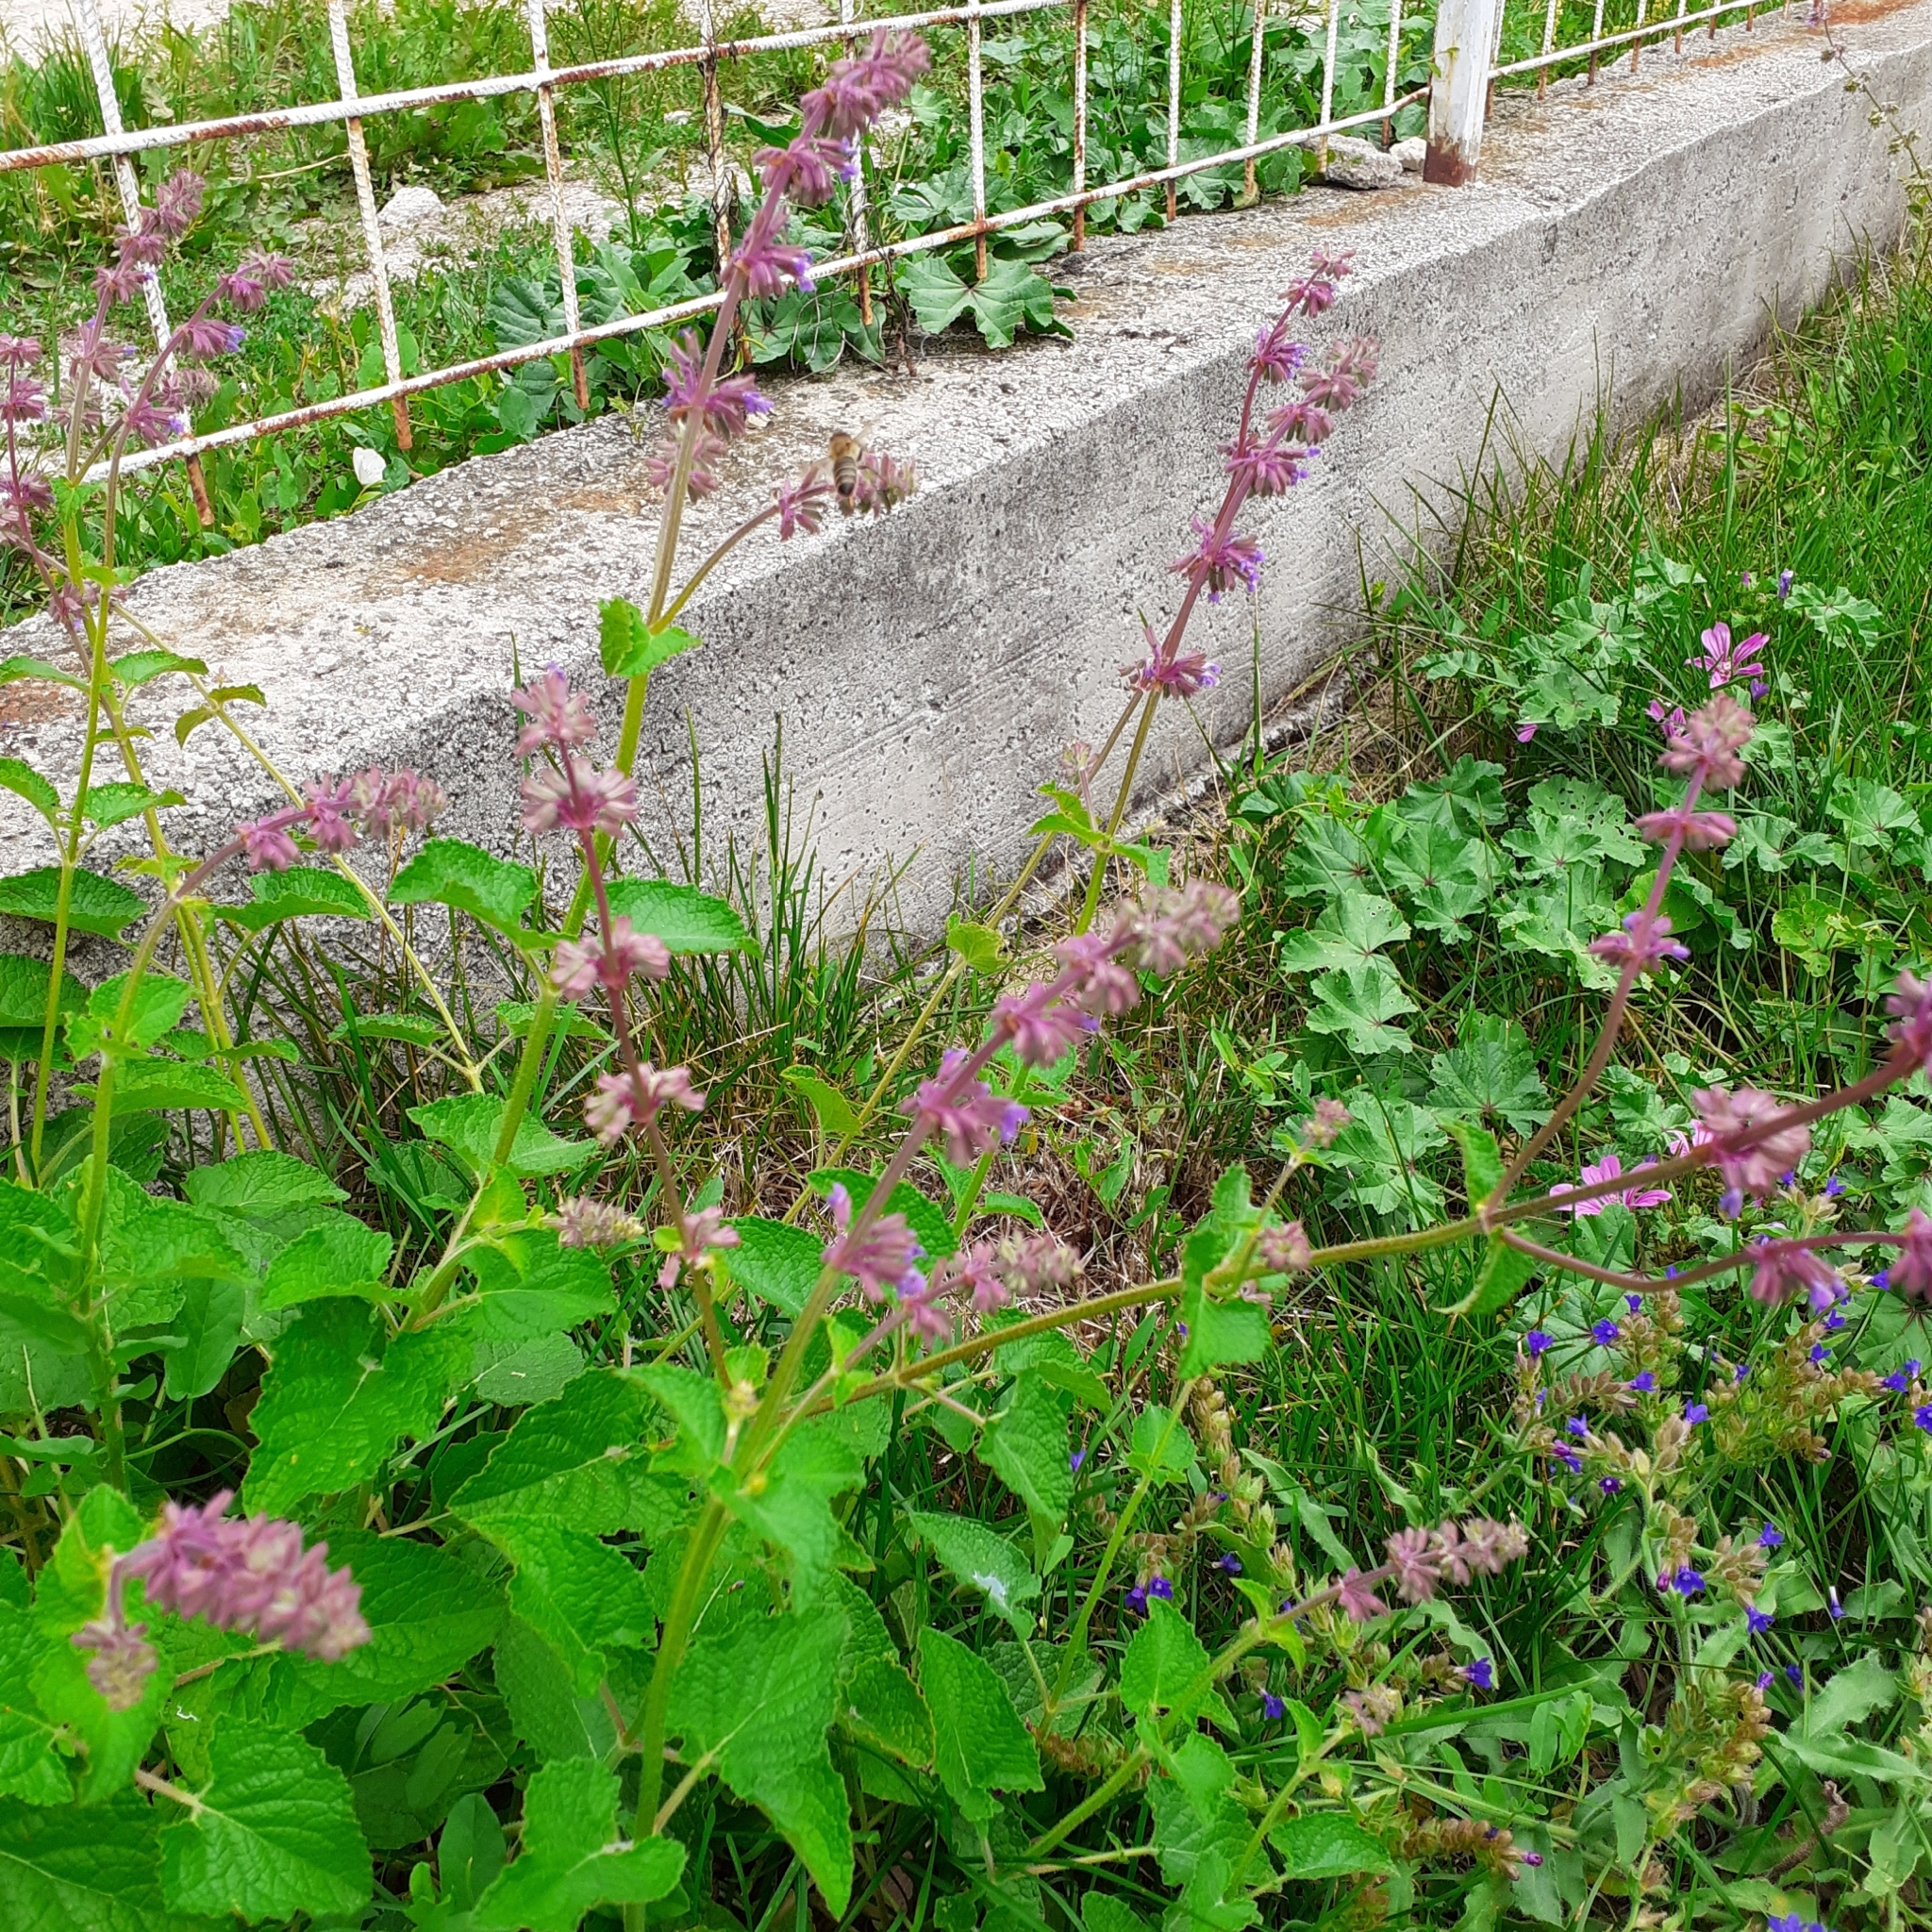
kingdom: Plantae
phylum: Tracheophyta
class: Magnoliopsida
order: Lamiales
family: Lamiaceae
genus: Salvia
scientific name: Salvia verticillata
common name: Whorled clary
